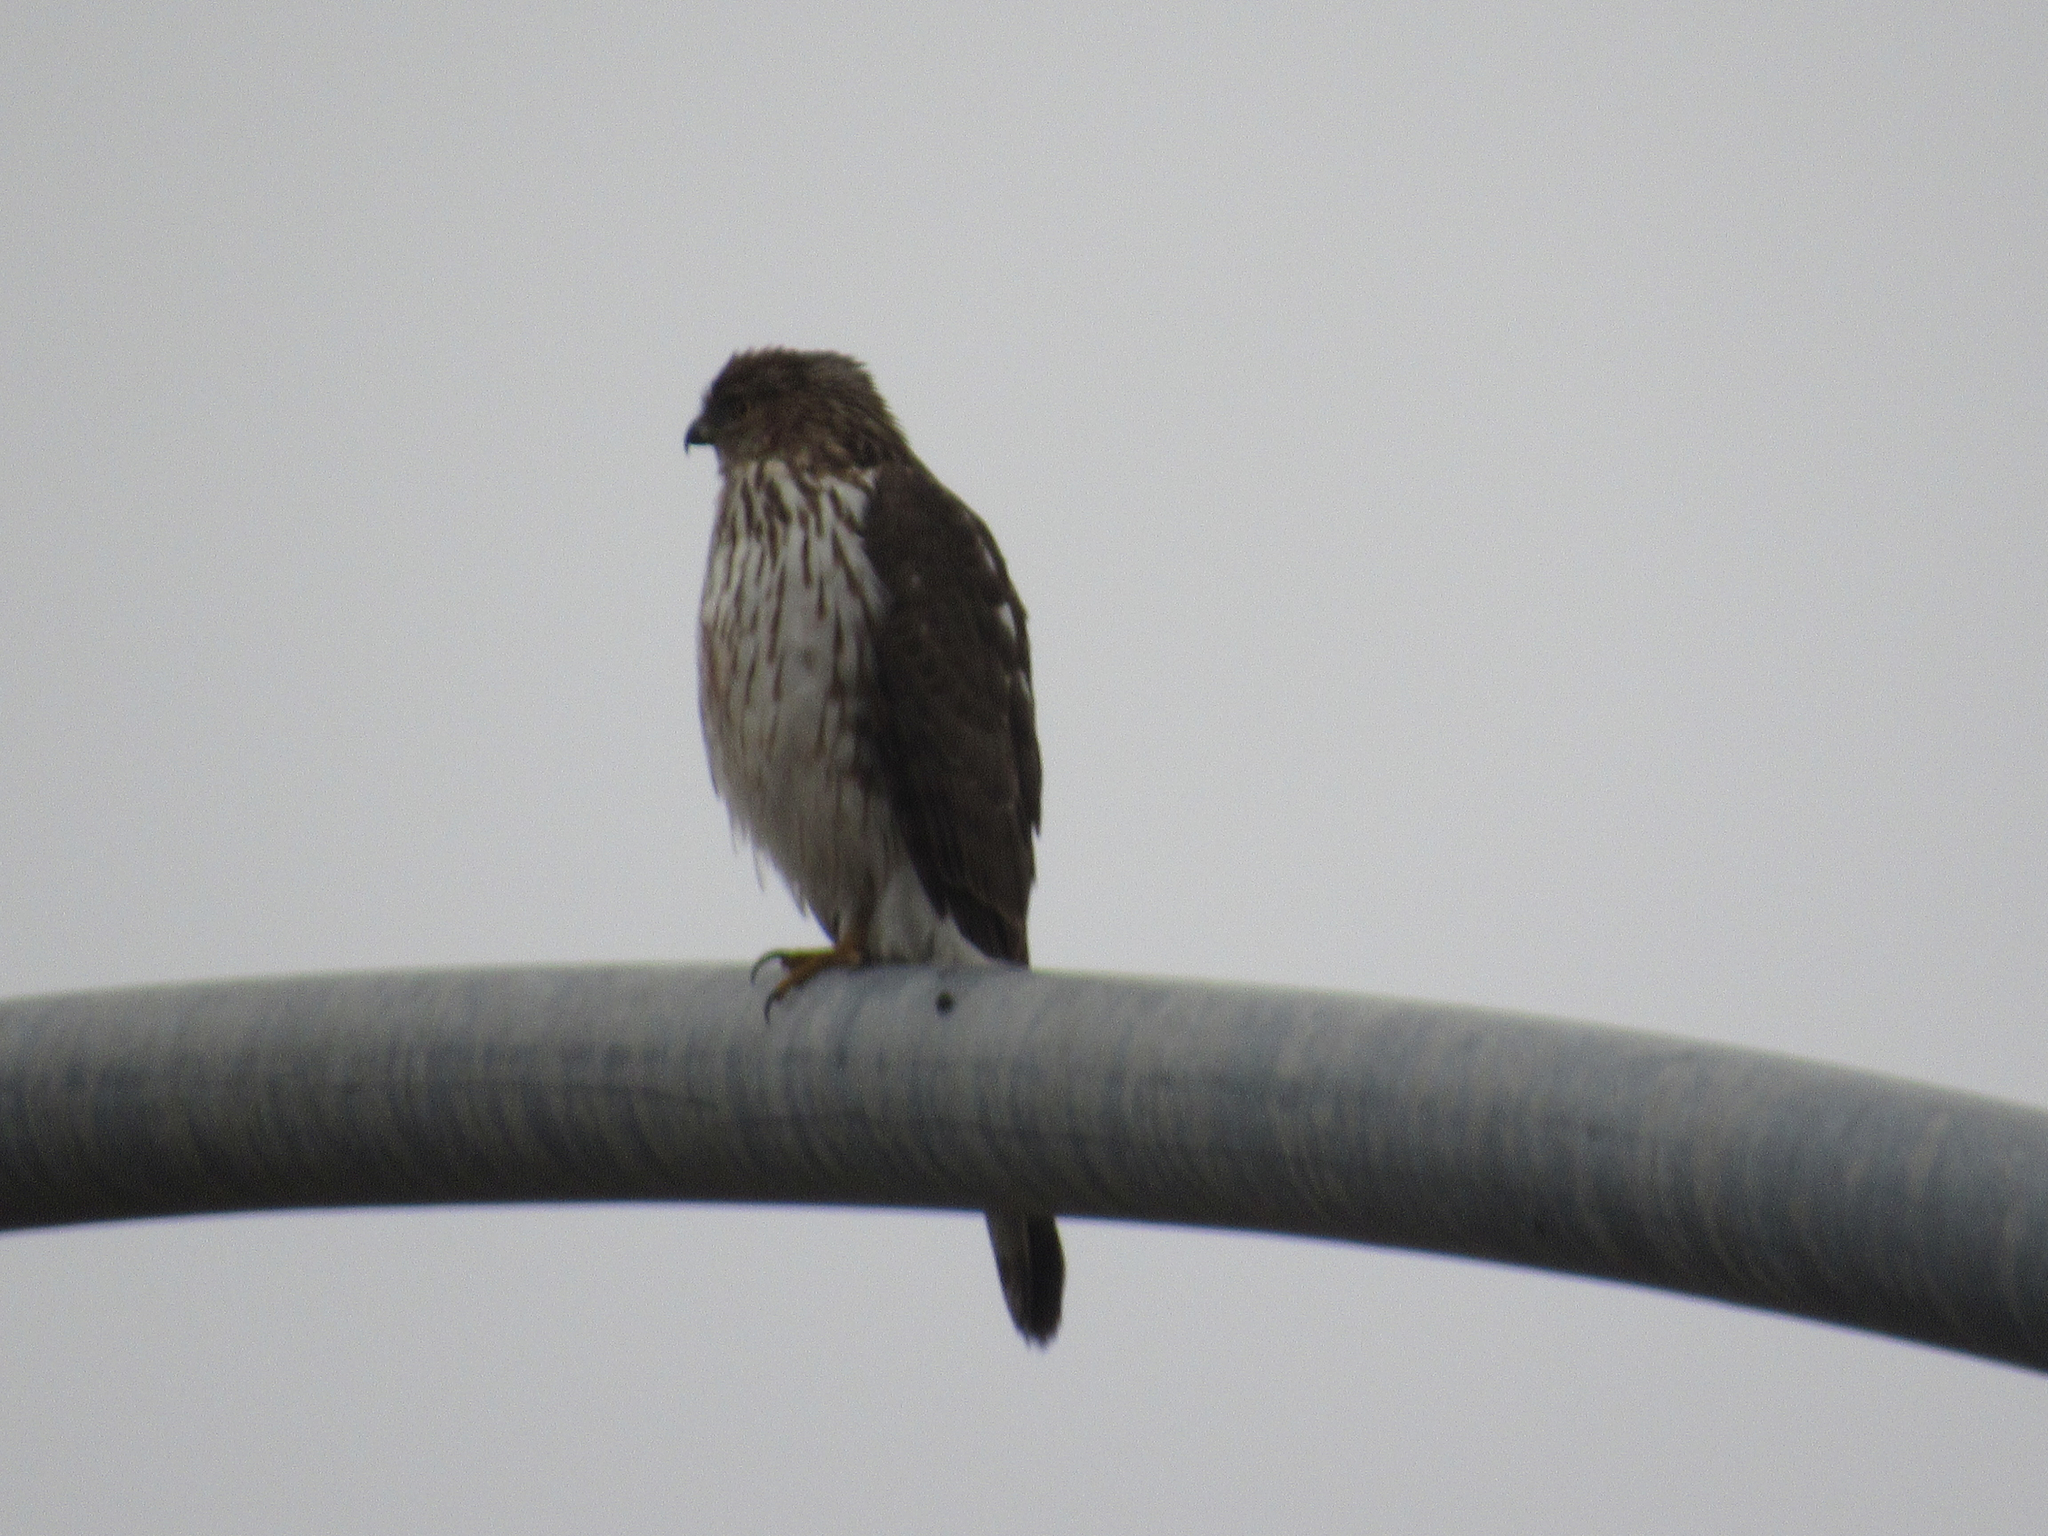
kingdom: Animalia
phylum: Chordata
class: Aves
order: Accipitriformes
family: Accipitridae
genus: Accipiter
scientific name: Accipiter cooperii
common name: Cooper's hawk
